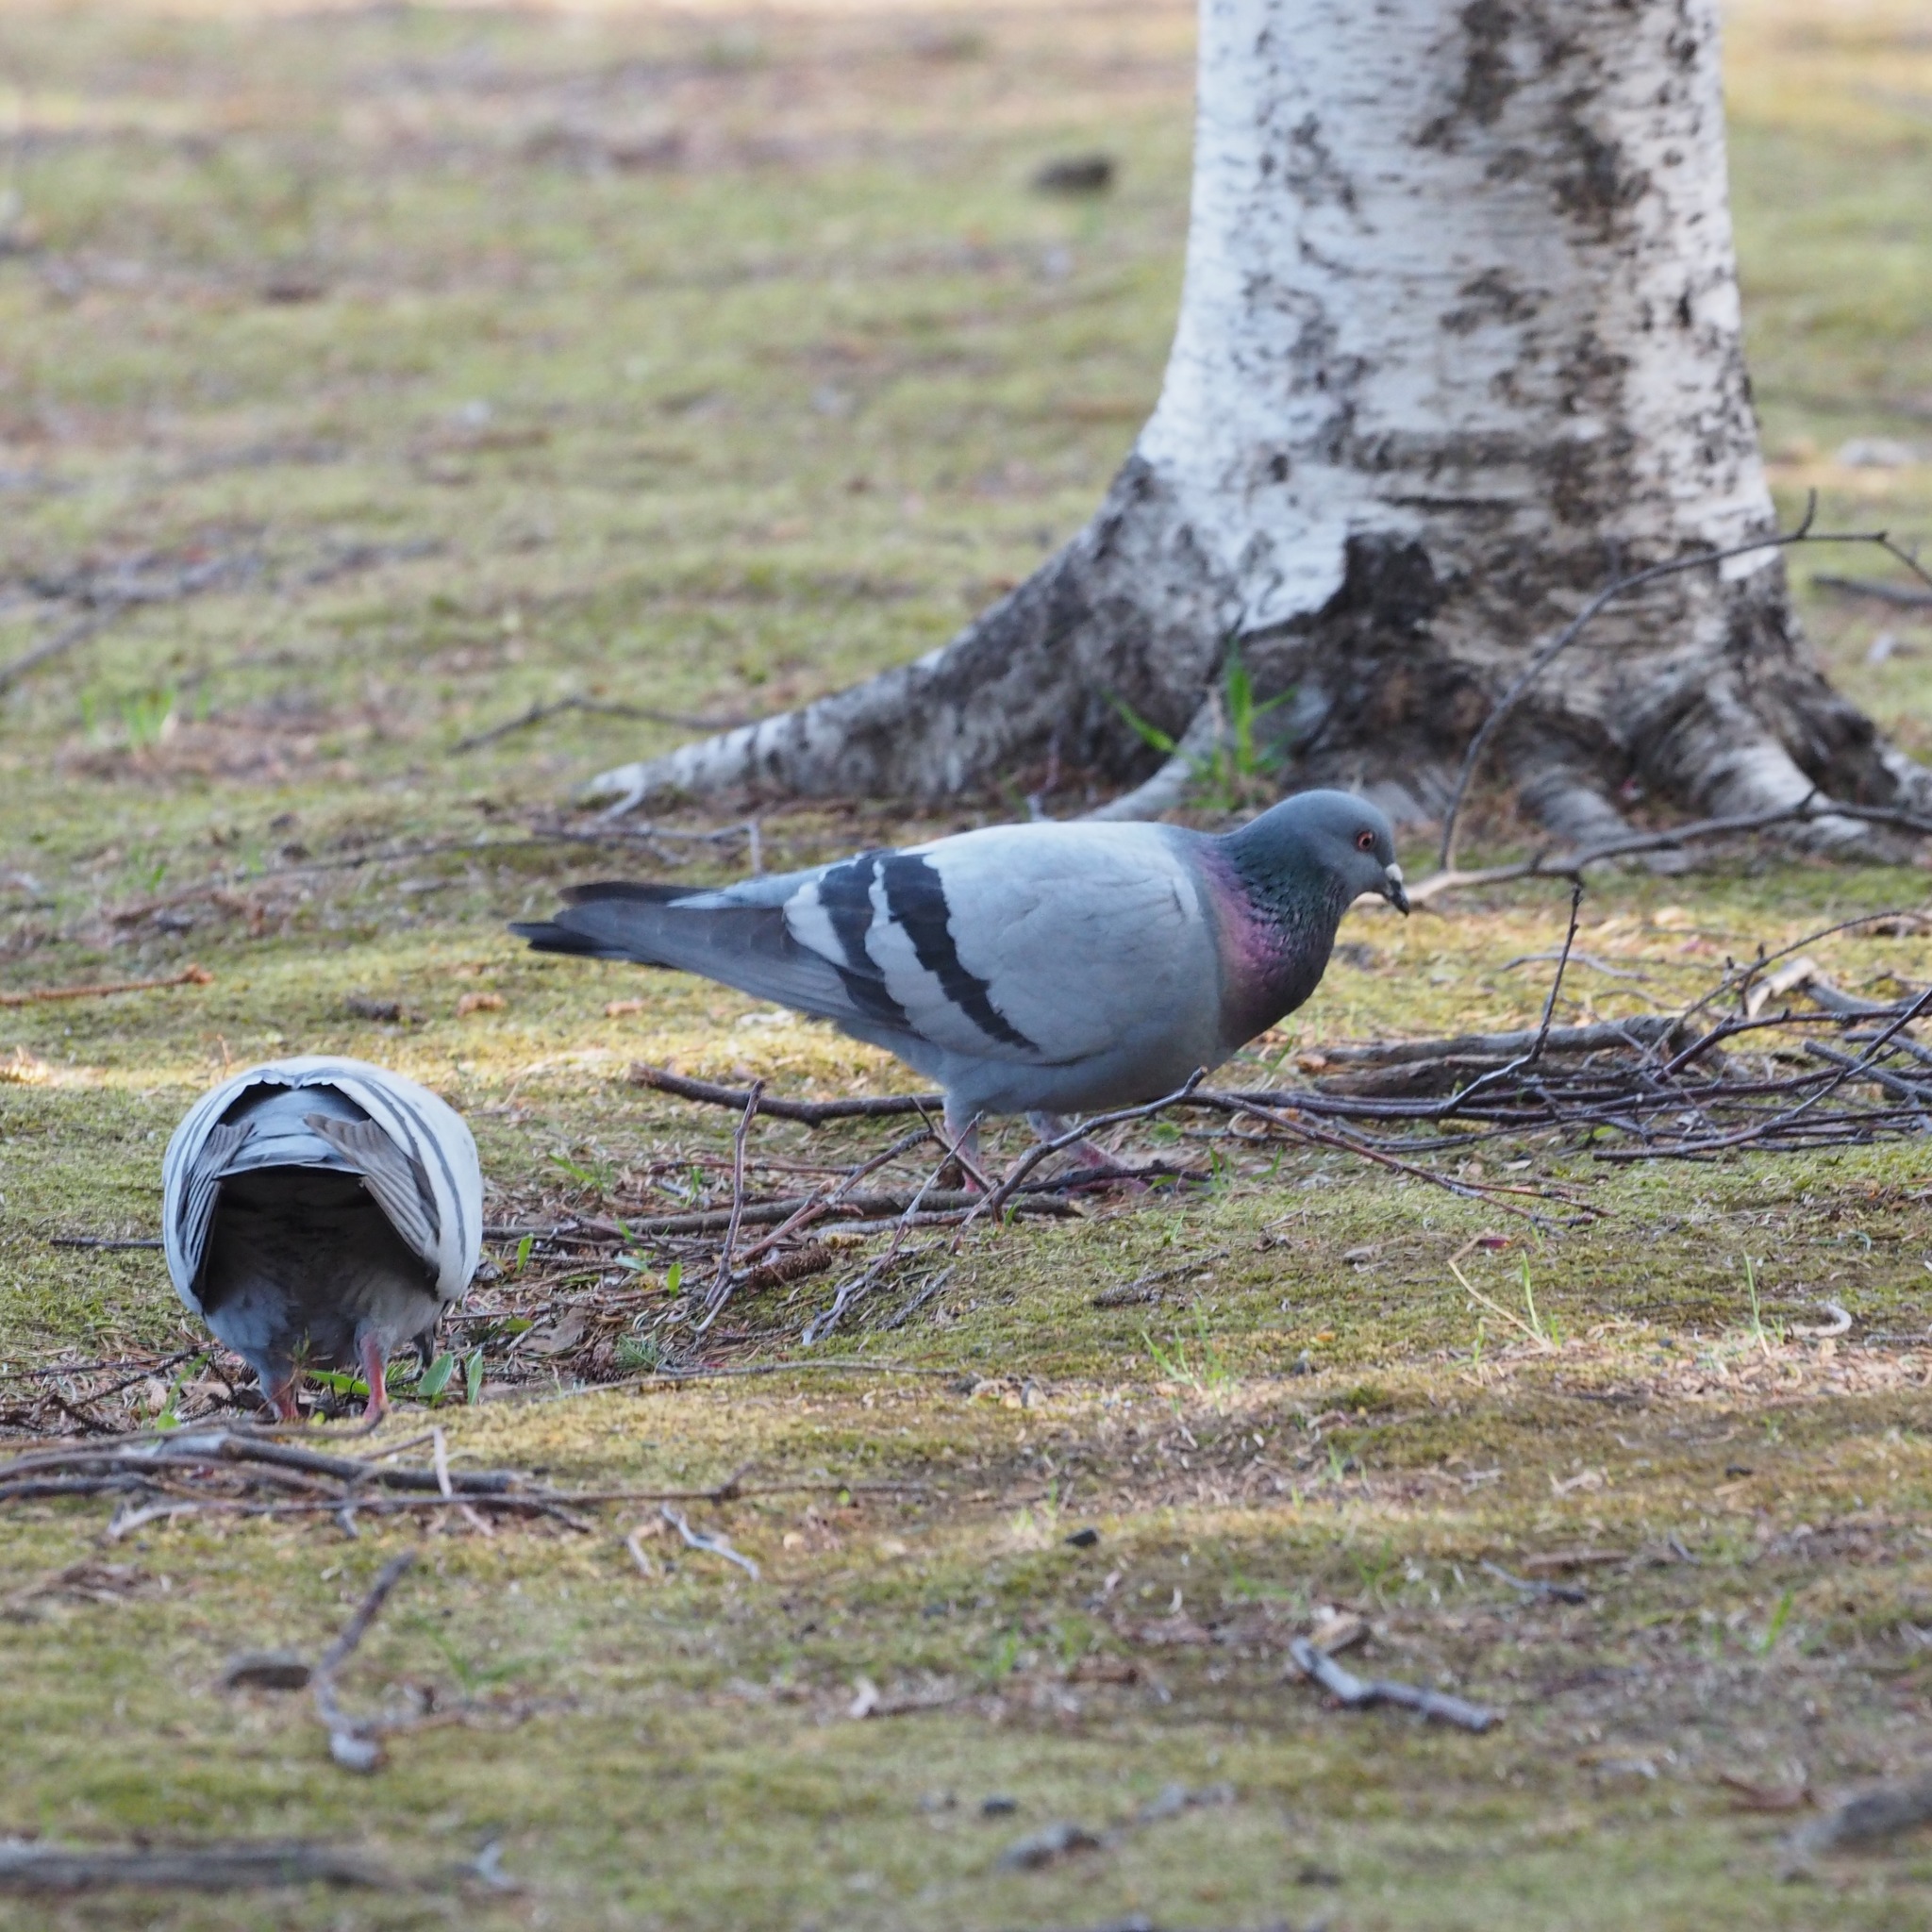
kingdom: Animalia
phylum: Chordata
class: Aves
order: Columbiformes
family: Columbidae
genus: Columba
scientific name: Columba livia
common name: Rock pigeon
